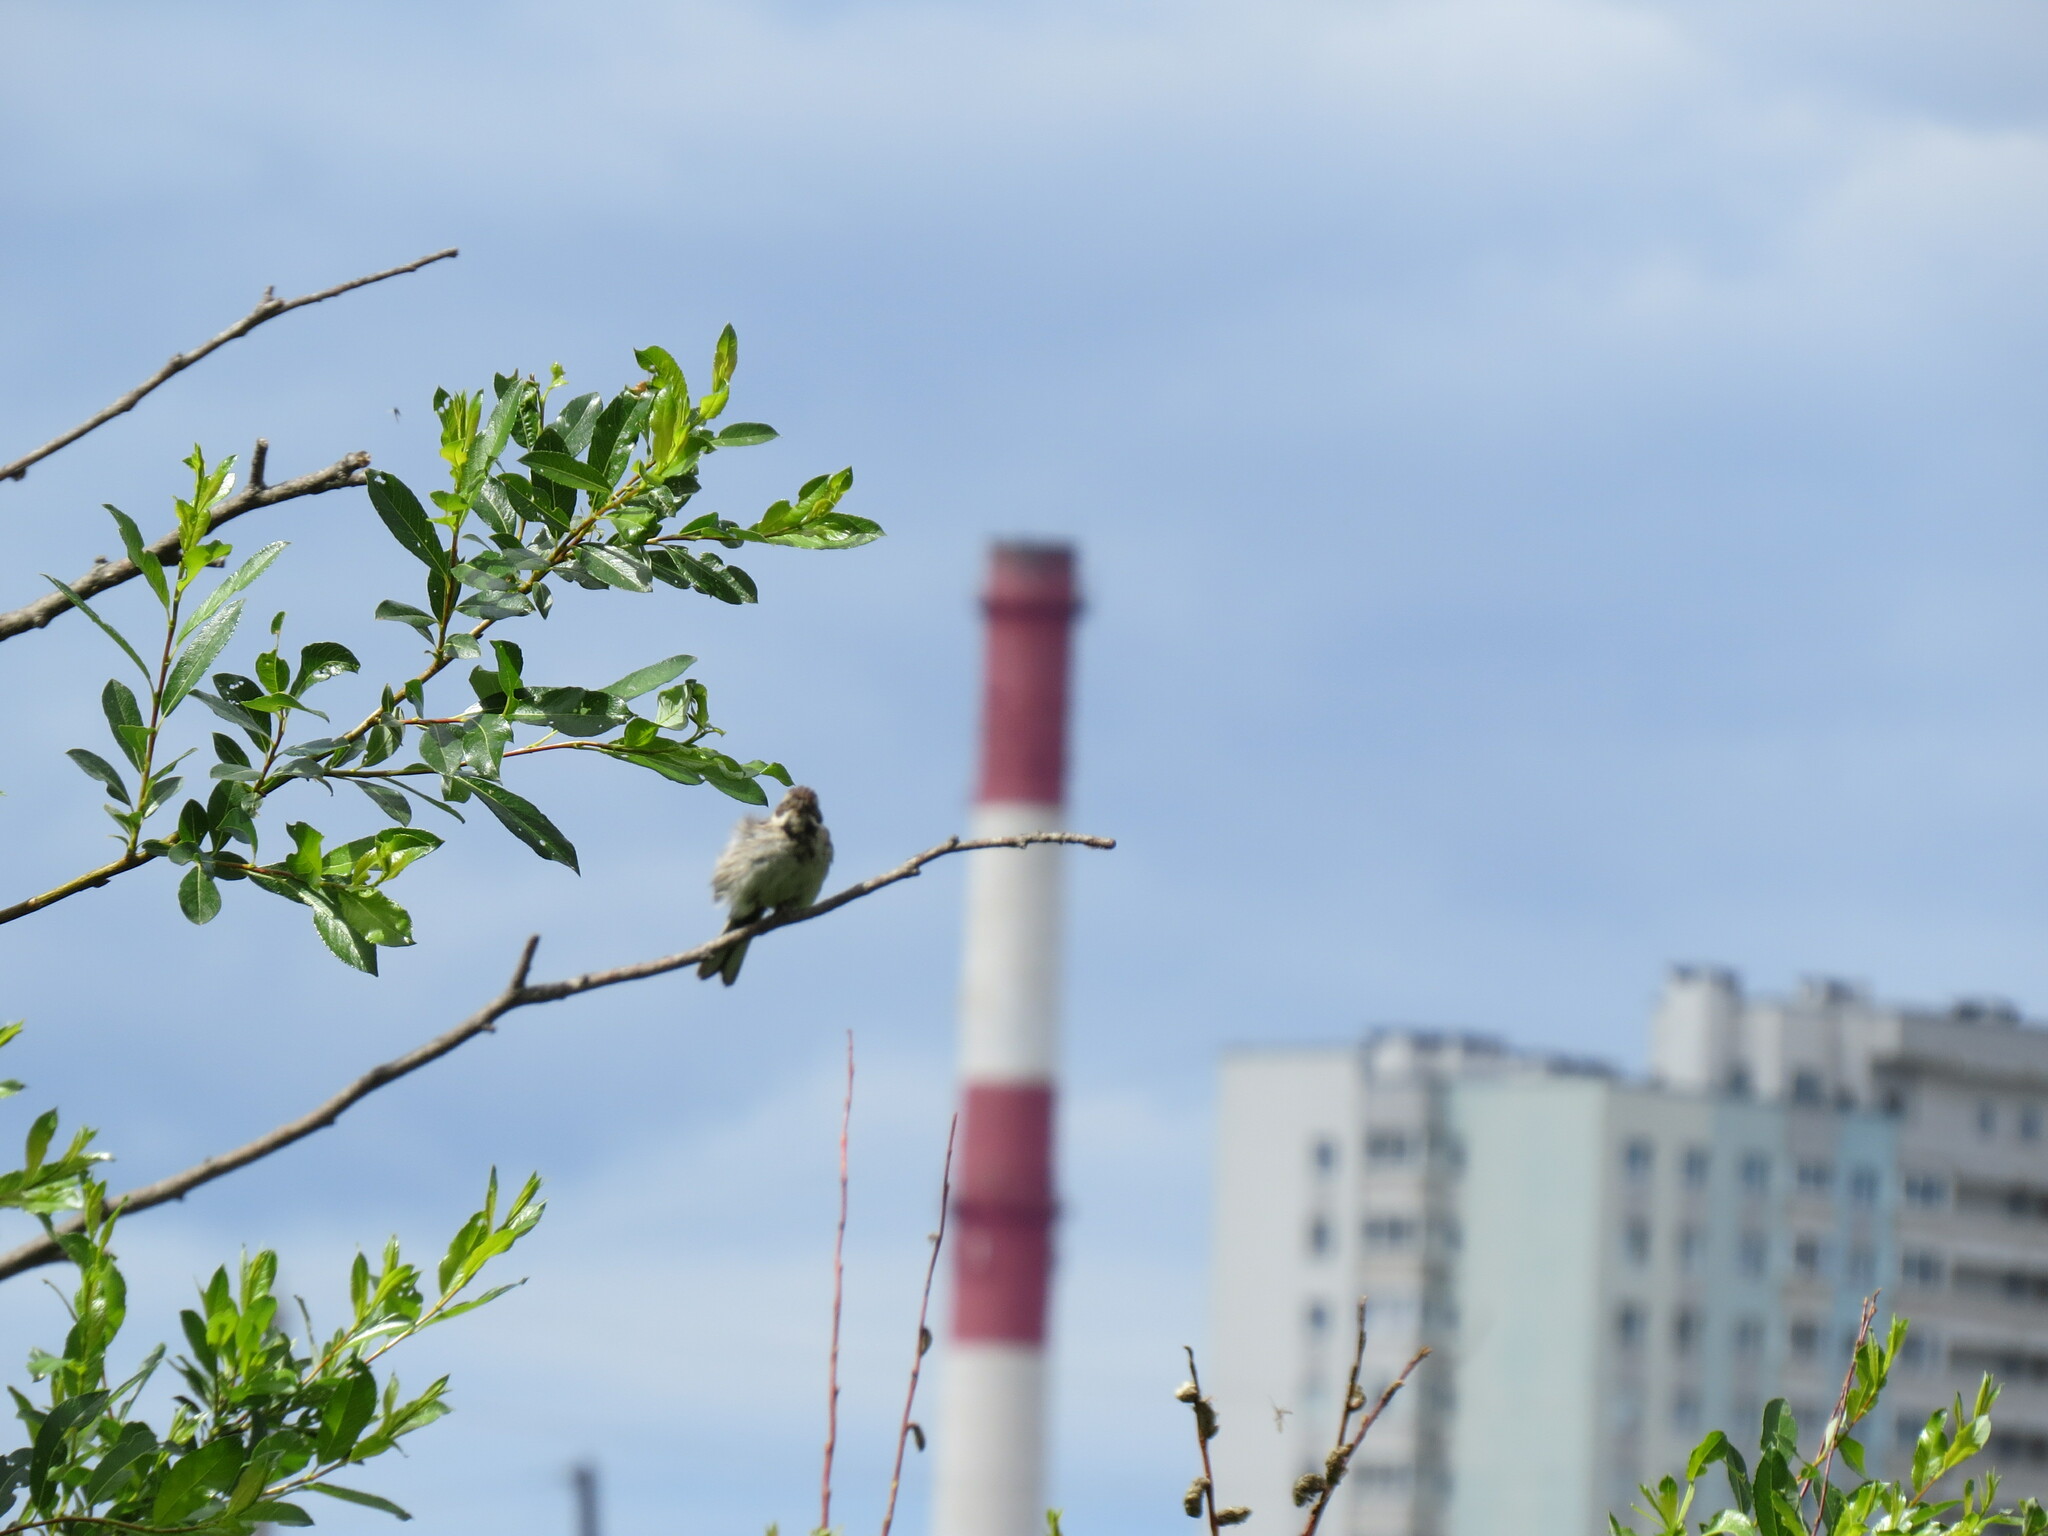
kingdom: Animalia
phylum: Chordata
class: Aves
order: Passeriformes
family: Emberizidae
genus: Emberiza
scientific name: Emberiza schoeniclus
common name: Reed bunting
